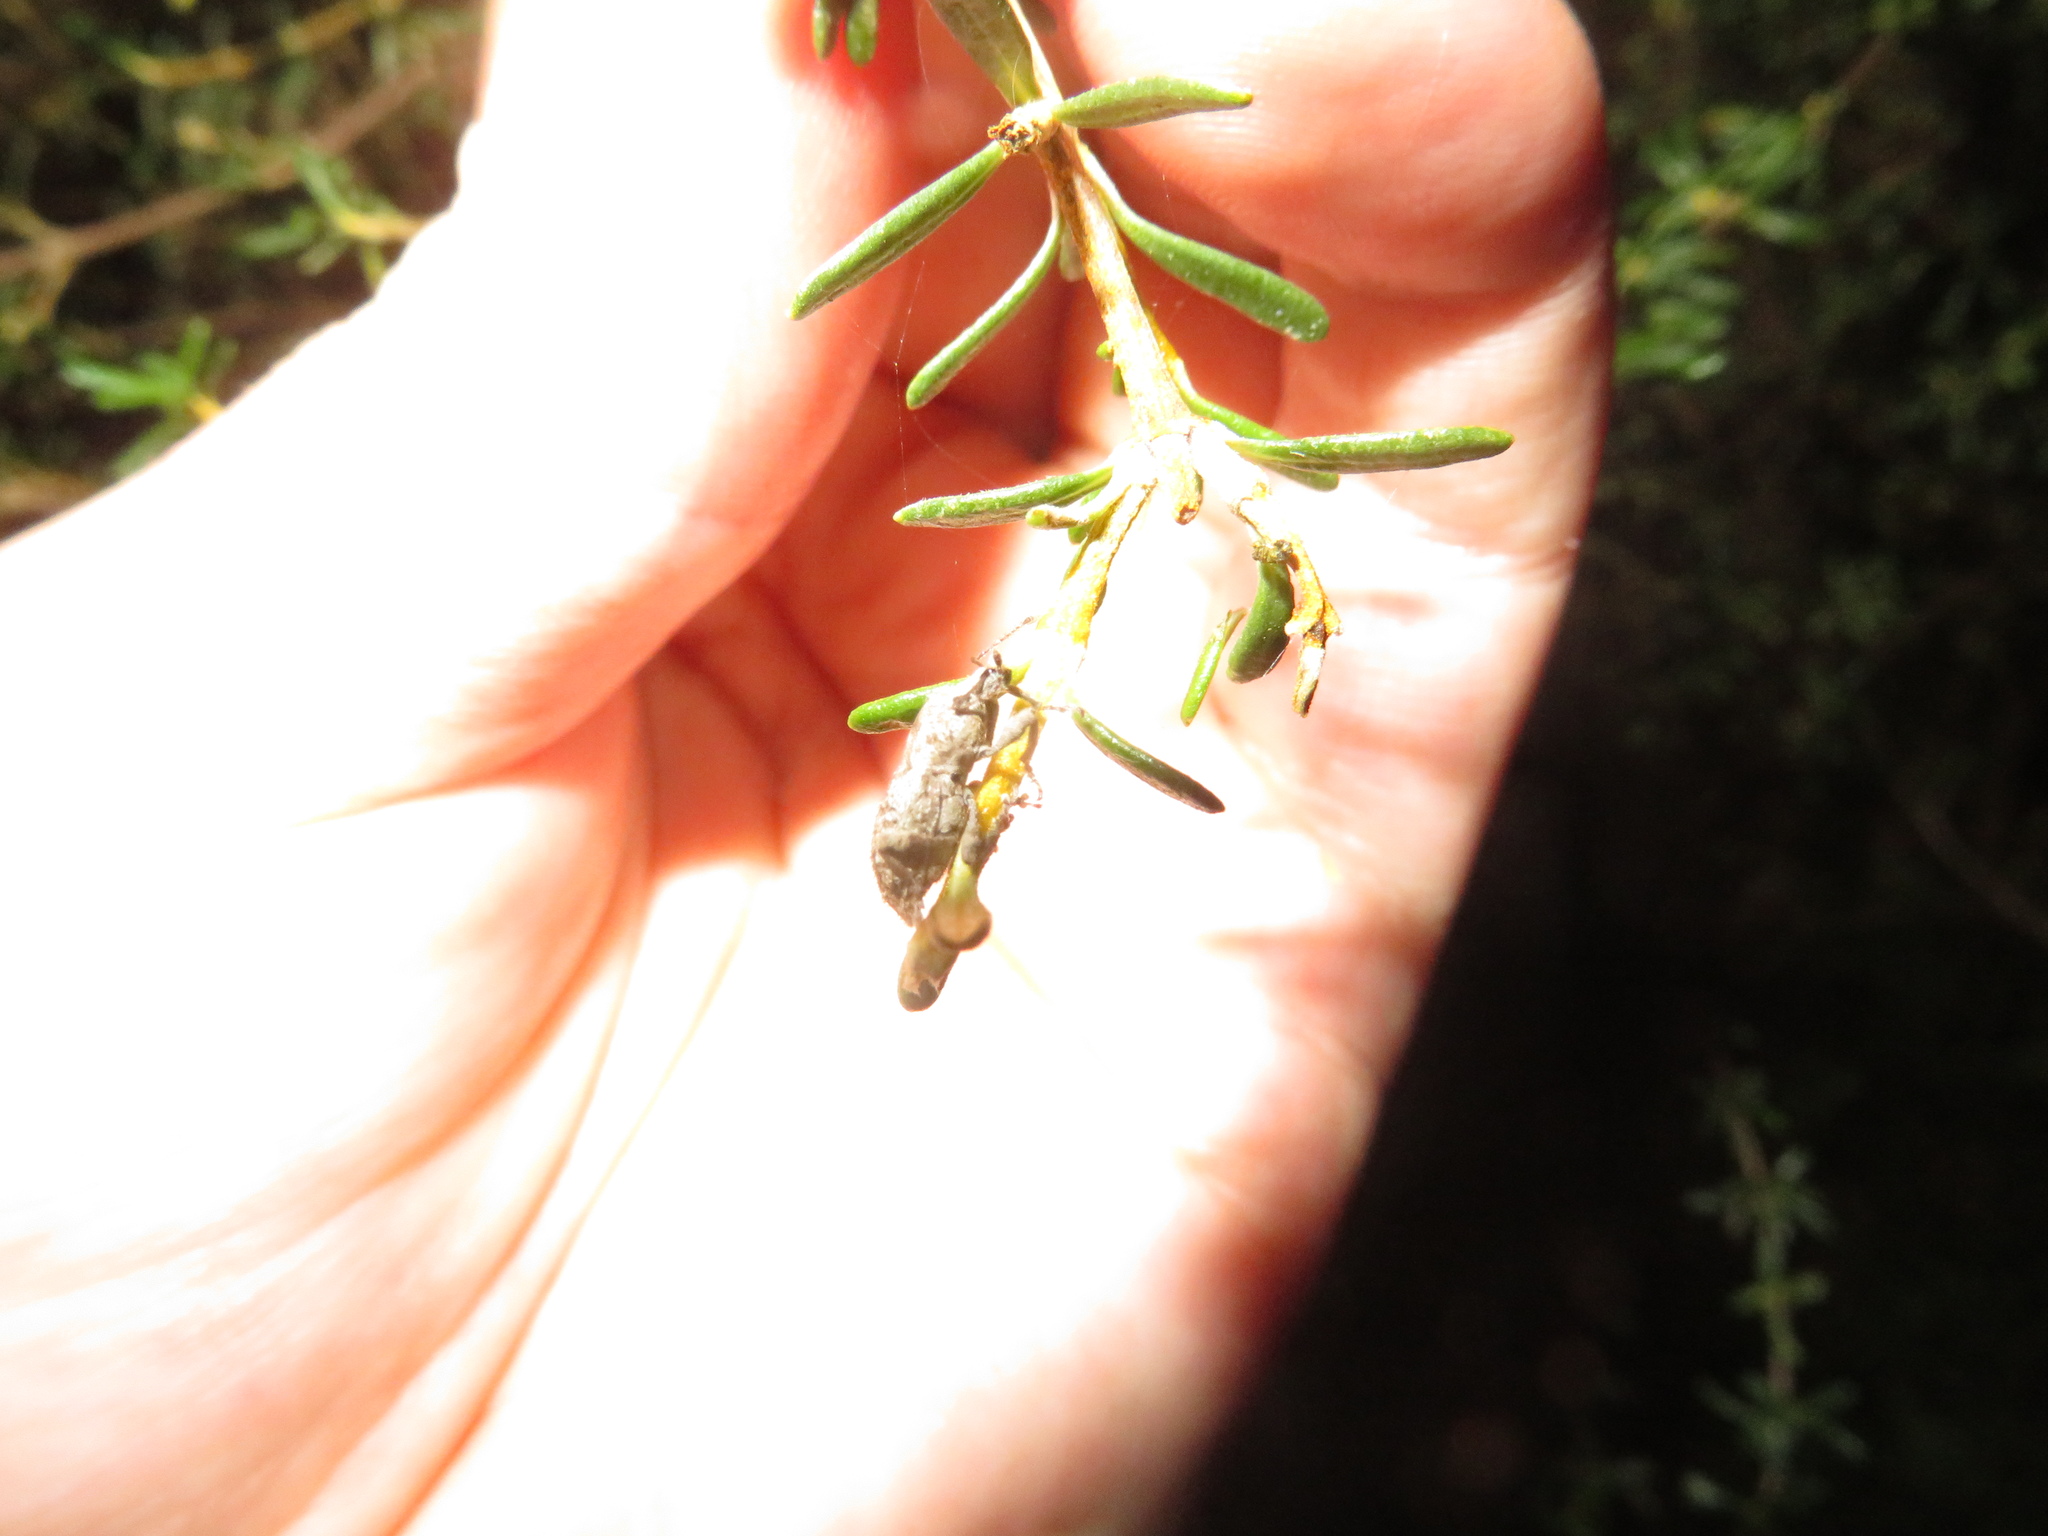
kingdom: Animalia
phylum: Arthropoda
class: Insecta
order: Coleoptera
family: Curculionidae
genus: Catoptes
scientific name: Catoptes constrictus
